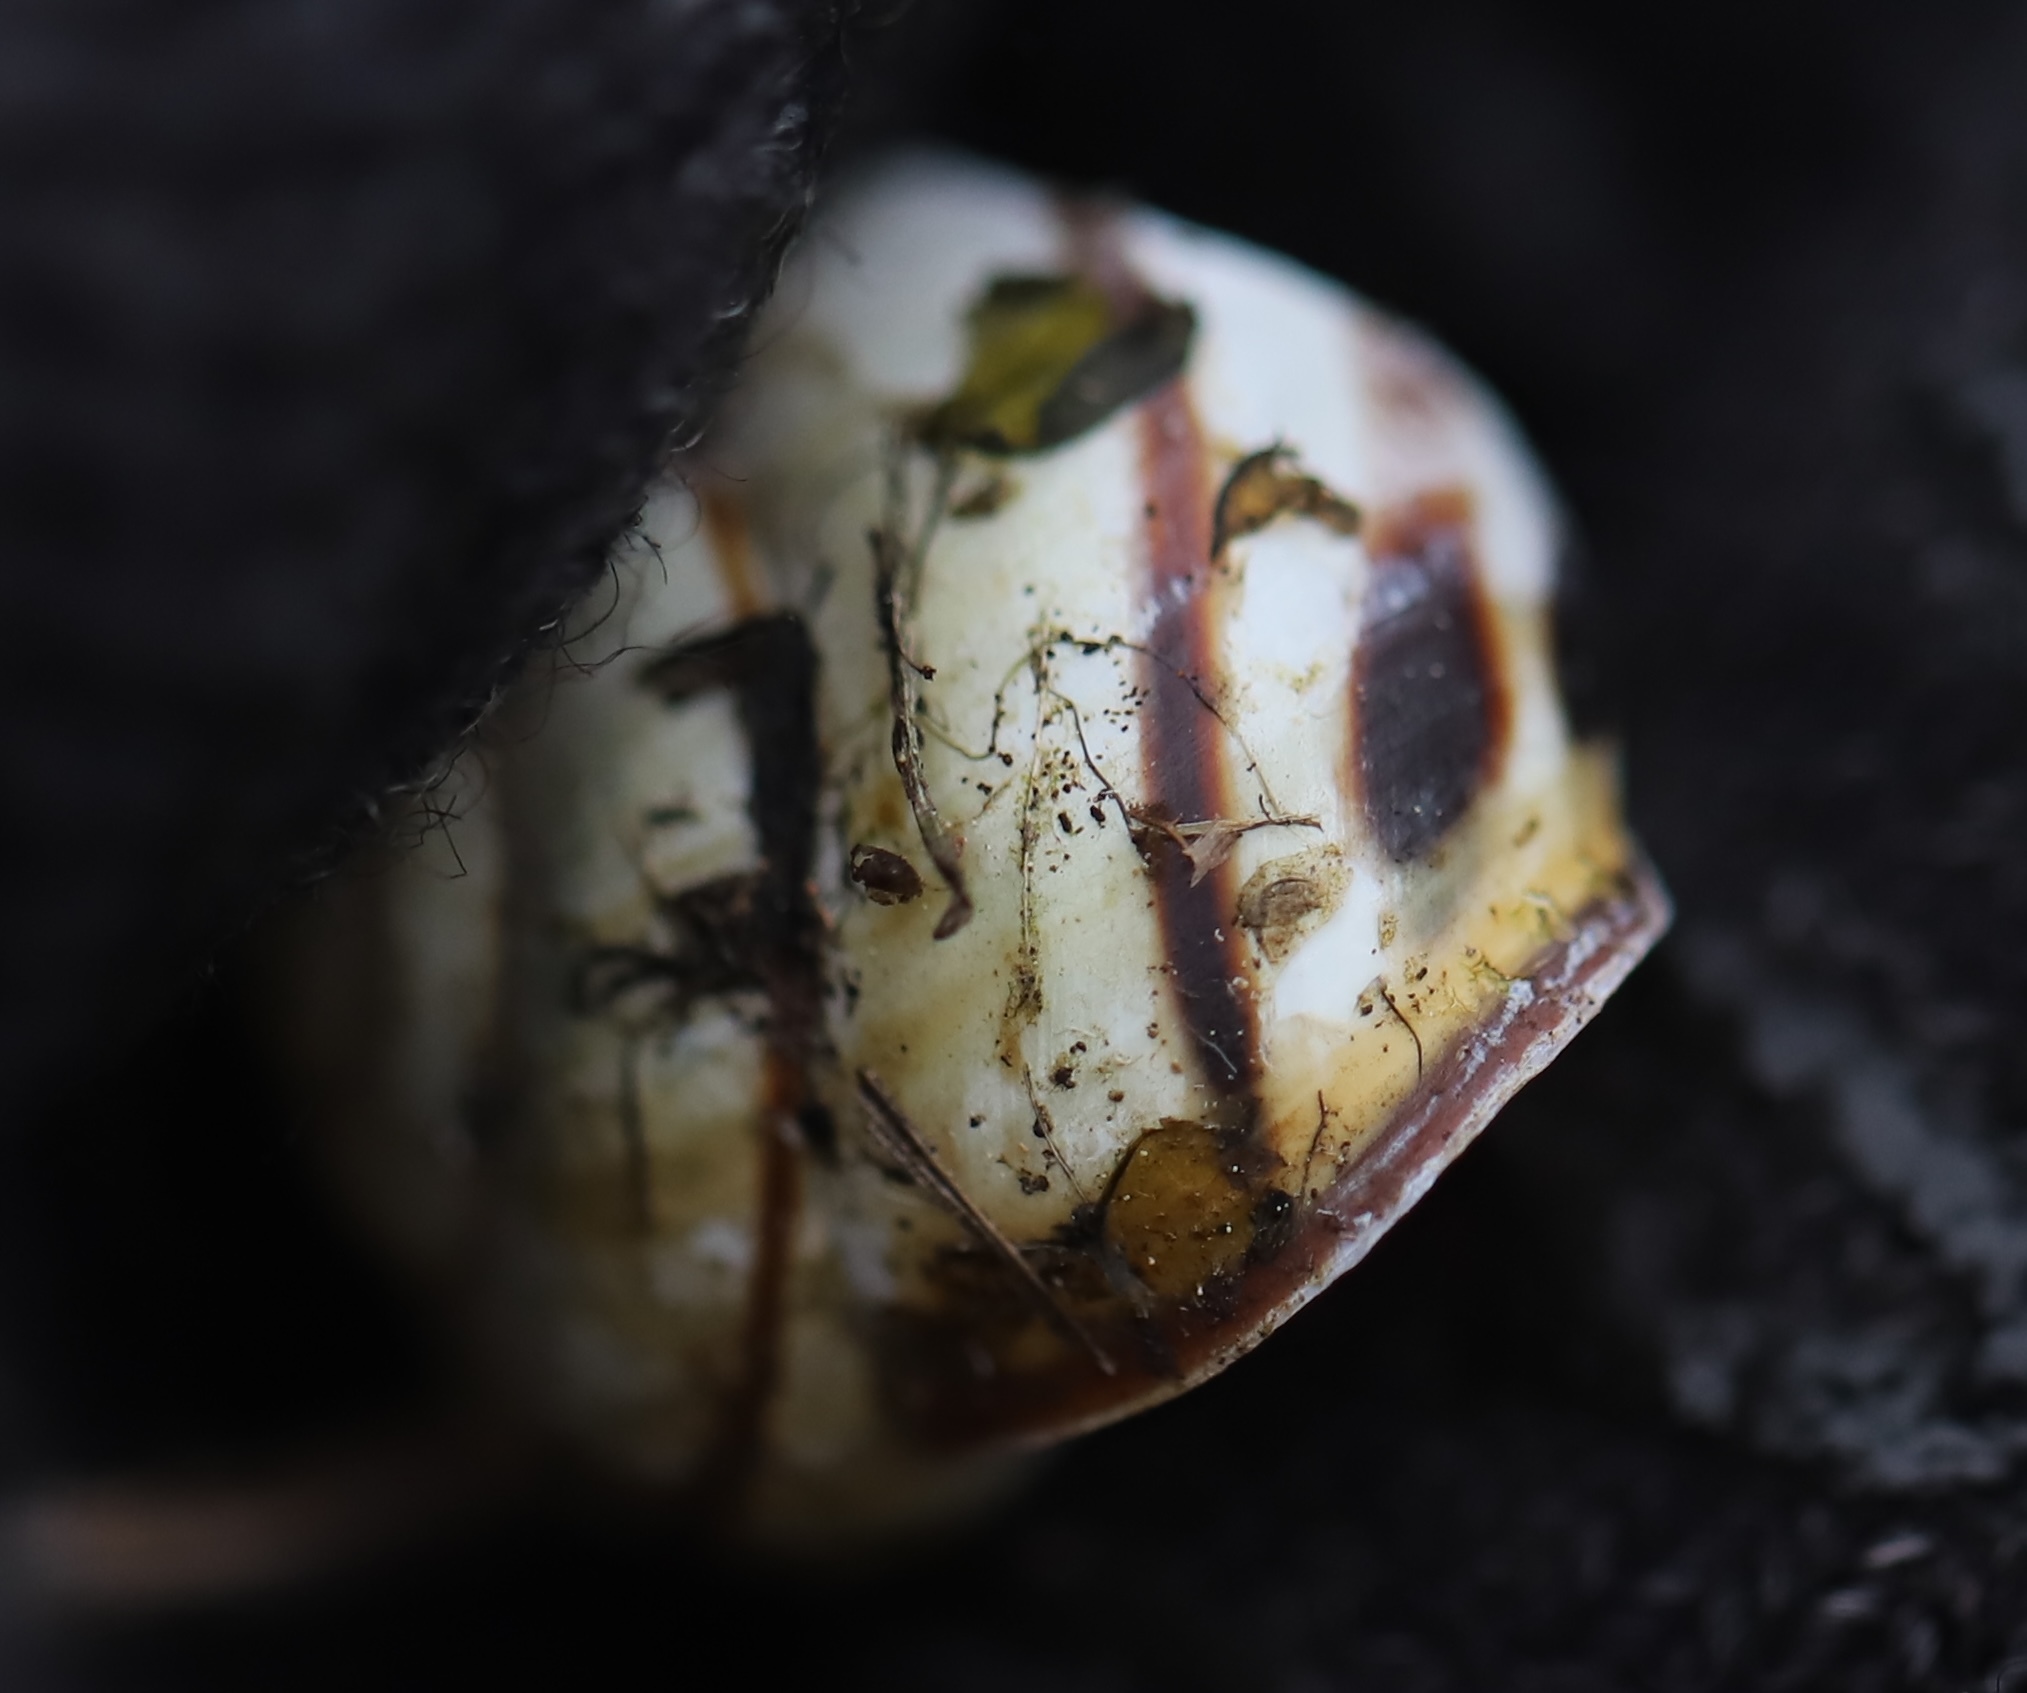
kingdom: Animalia
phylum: Mollusca
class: Gastropoda
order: Stylommatophora
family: Helicidae
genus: Cepaea
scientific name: Cepaea nemoralis
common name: Grovesnail
